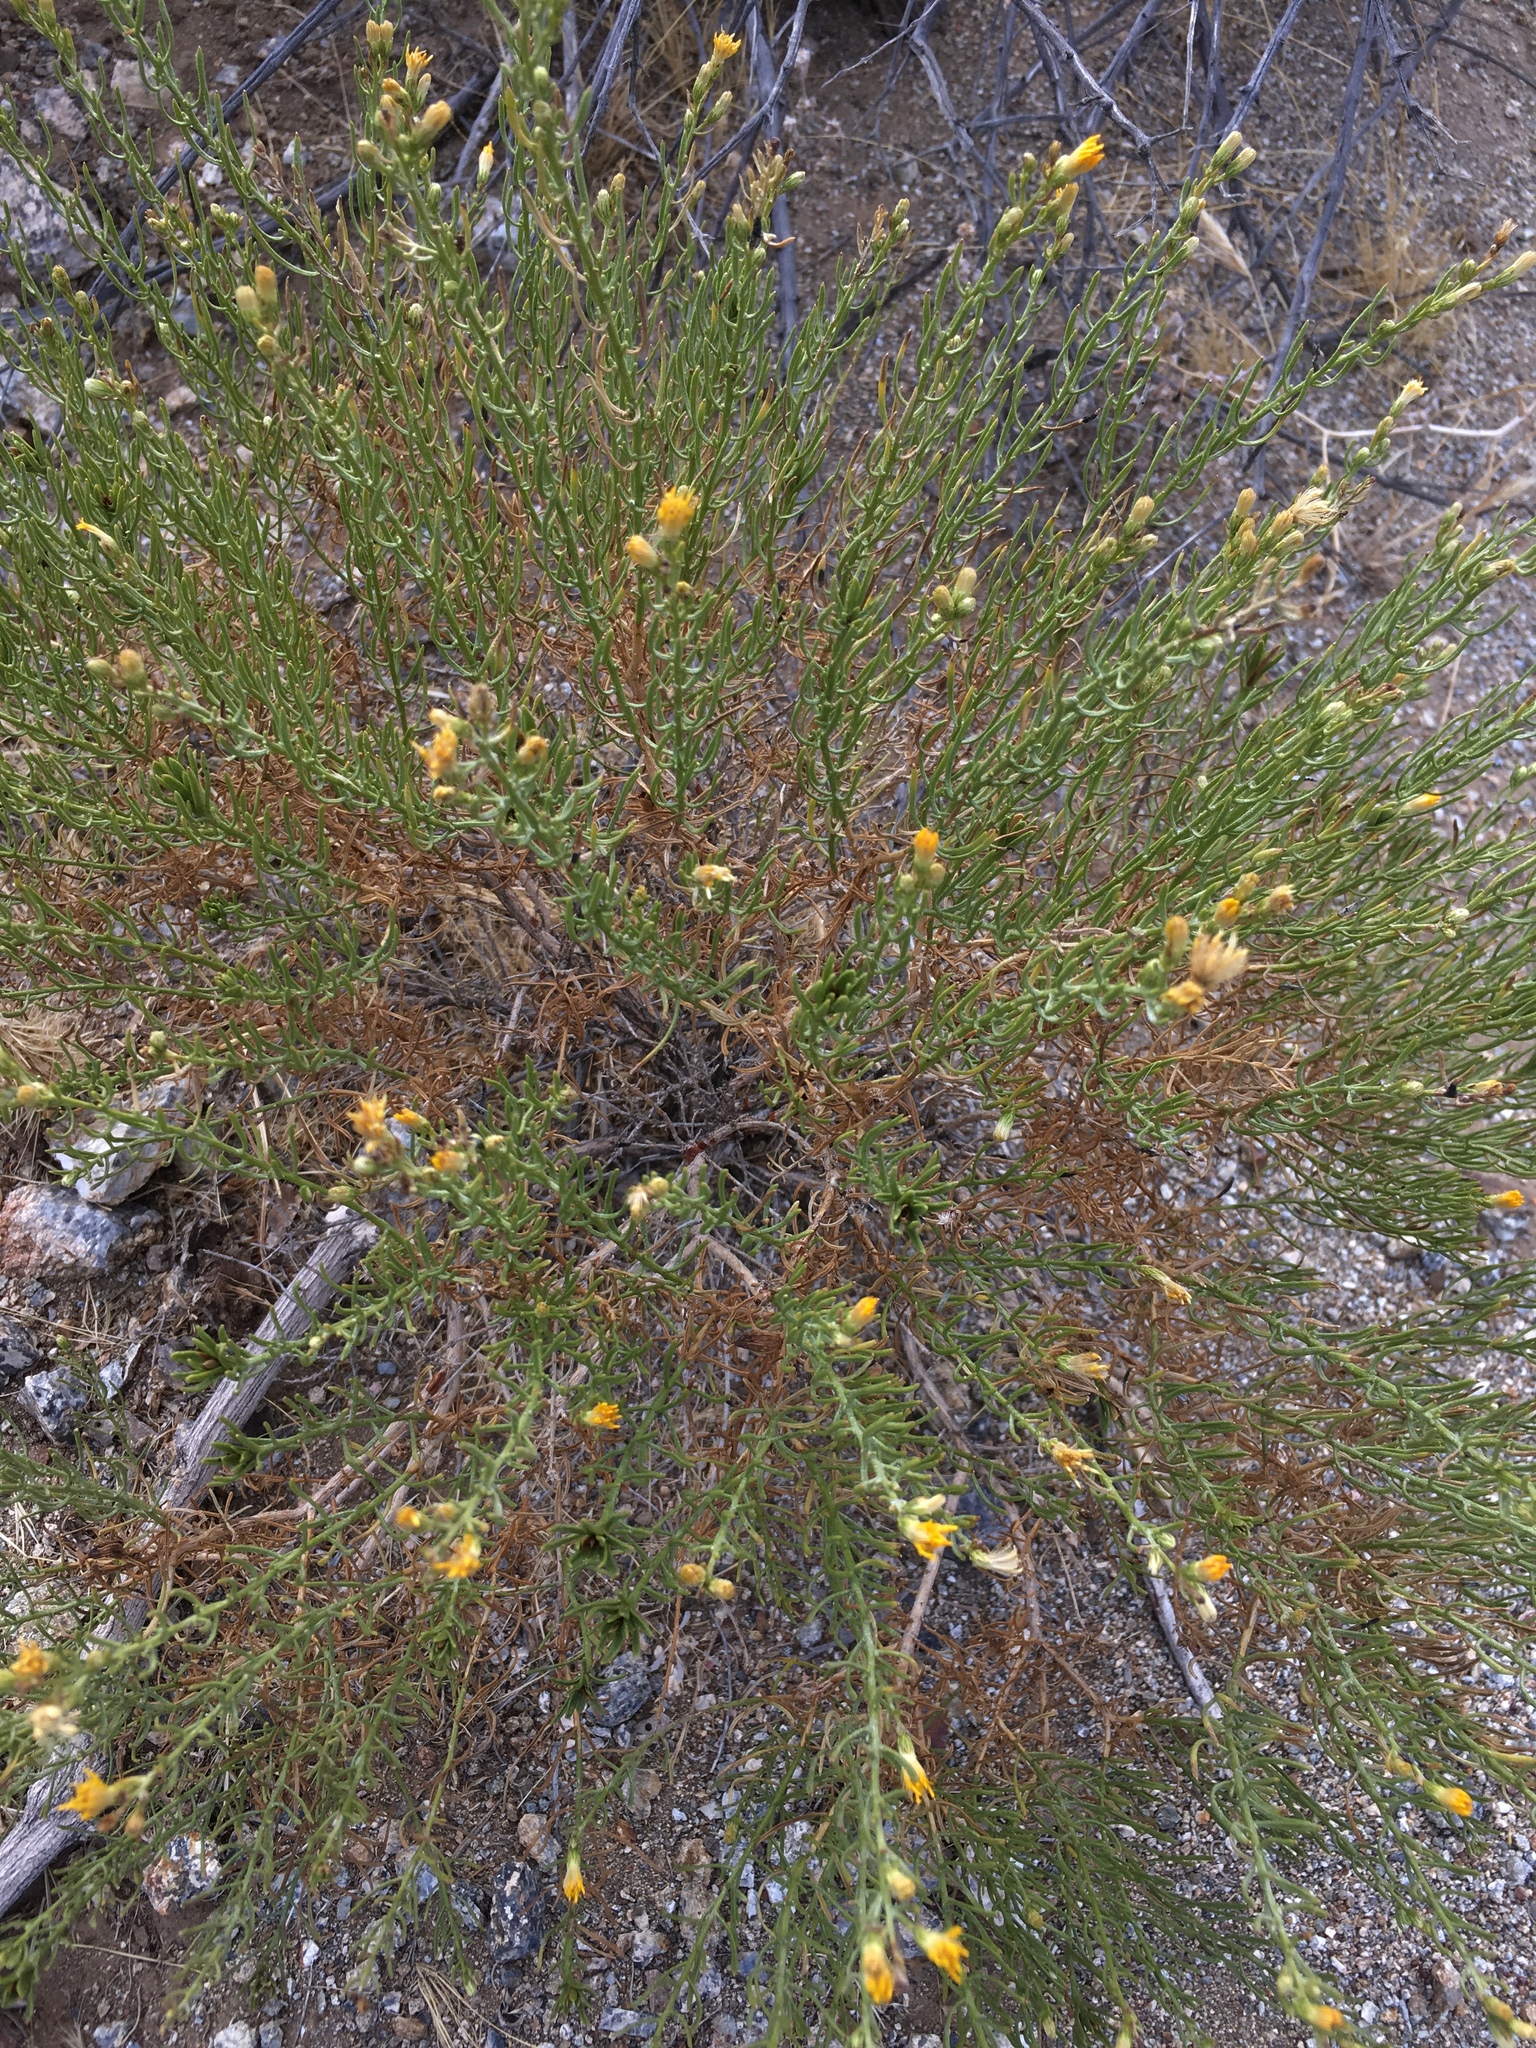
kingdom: Plantae
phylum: Tracheophyta
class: Magnoliopsida
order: Asterales
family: Asteraceae
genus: Ericameria
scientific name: Ericameria brachylepis
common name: Boundary goldenbush
